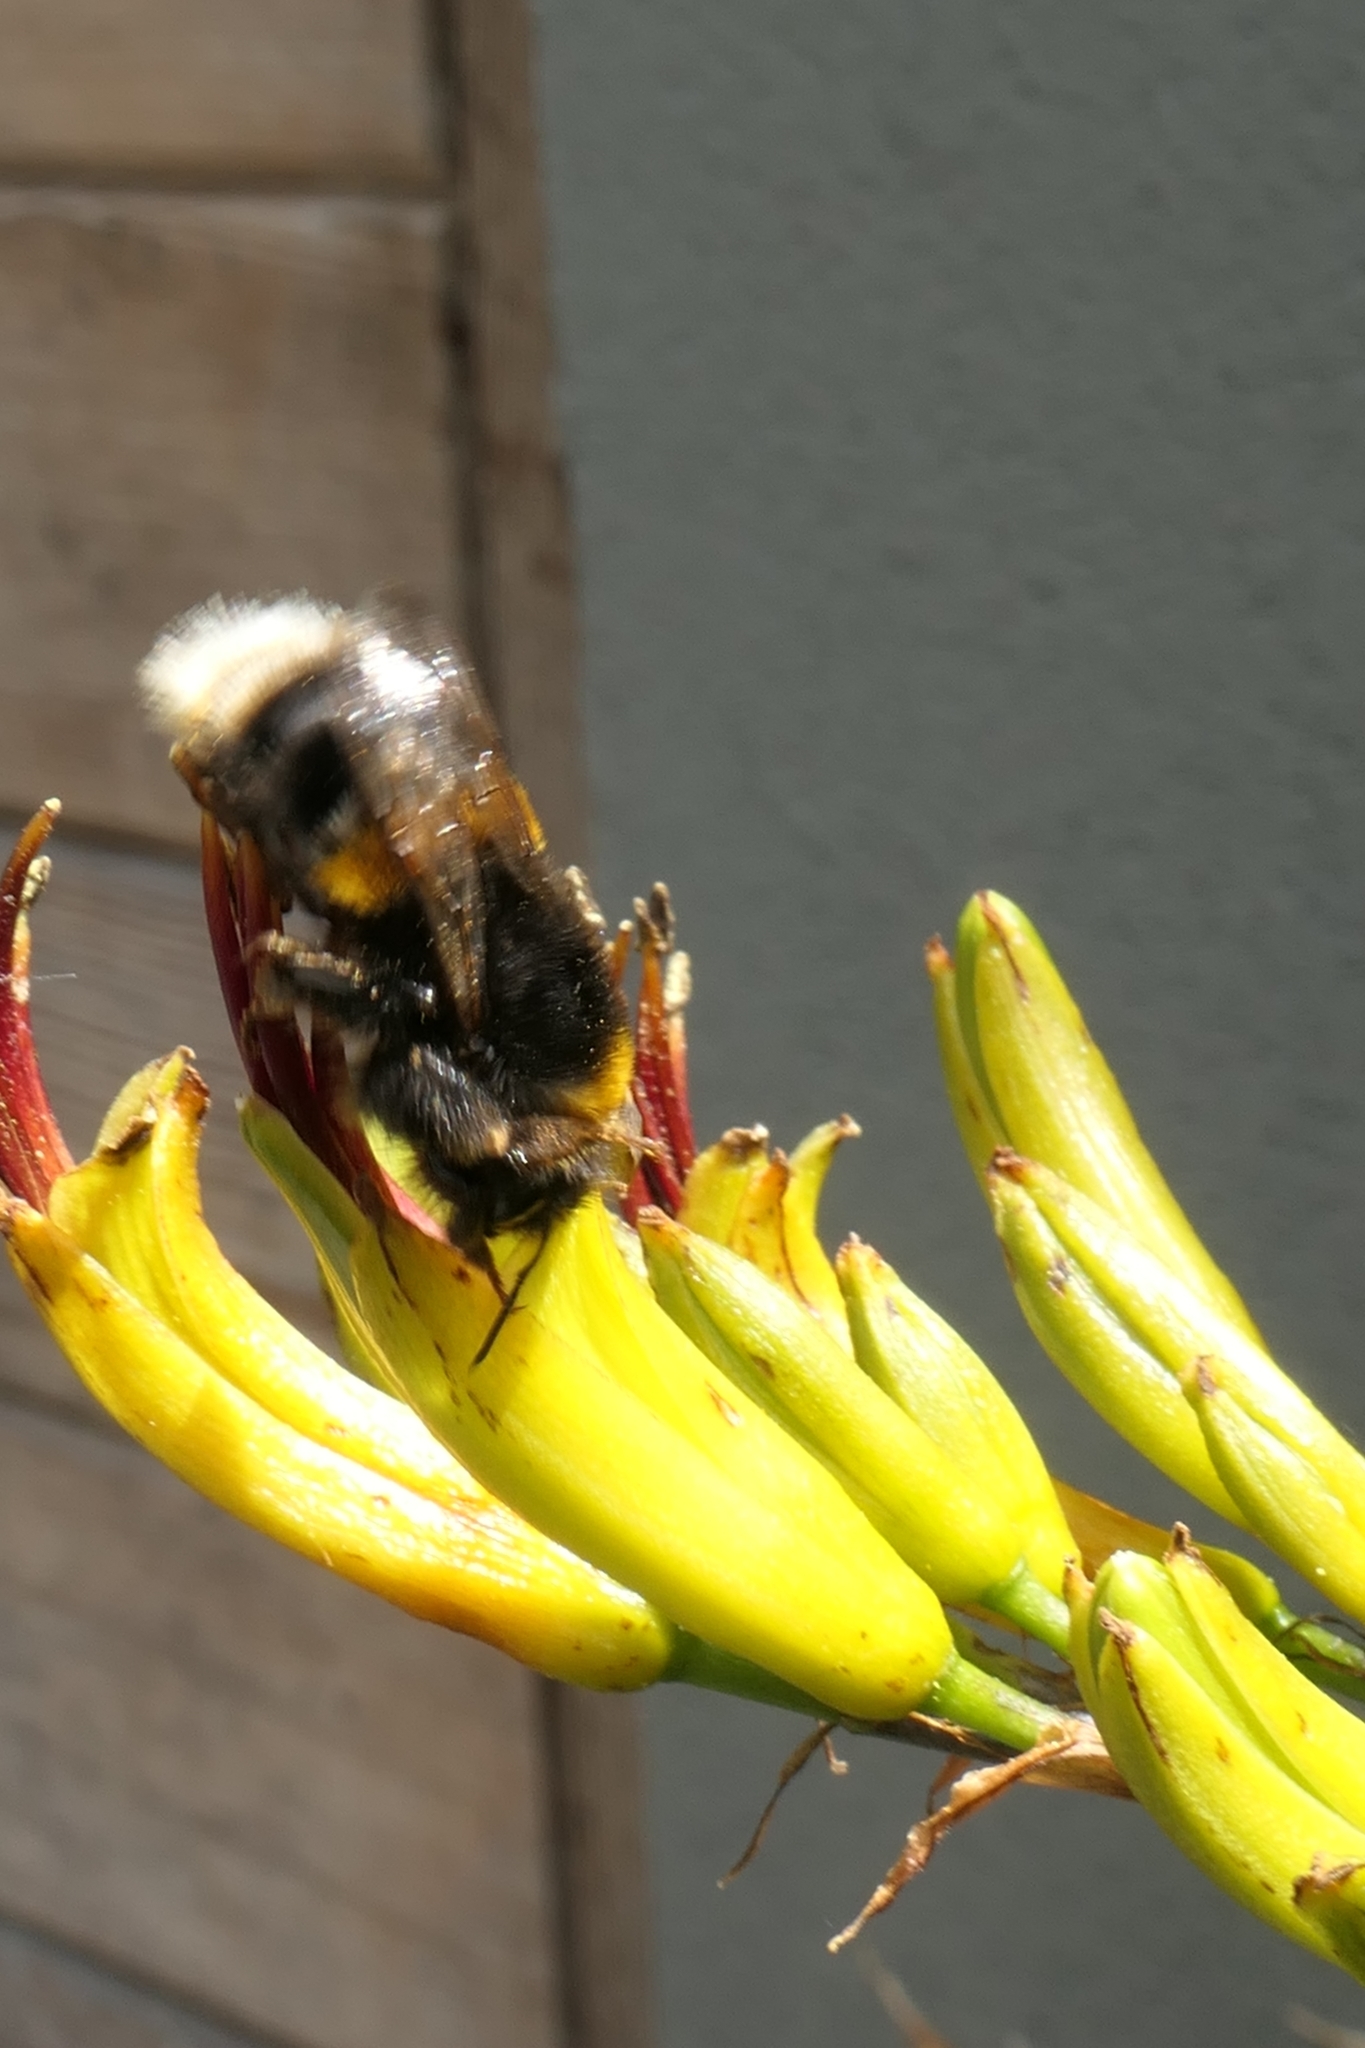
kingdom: Animalia
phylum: Arthropoda
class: Insecta
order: Hymenoptera
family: Apidae
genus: Bombus
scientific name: Bombus terrestris
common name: Buff-tailed bumblebee
